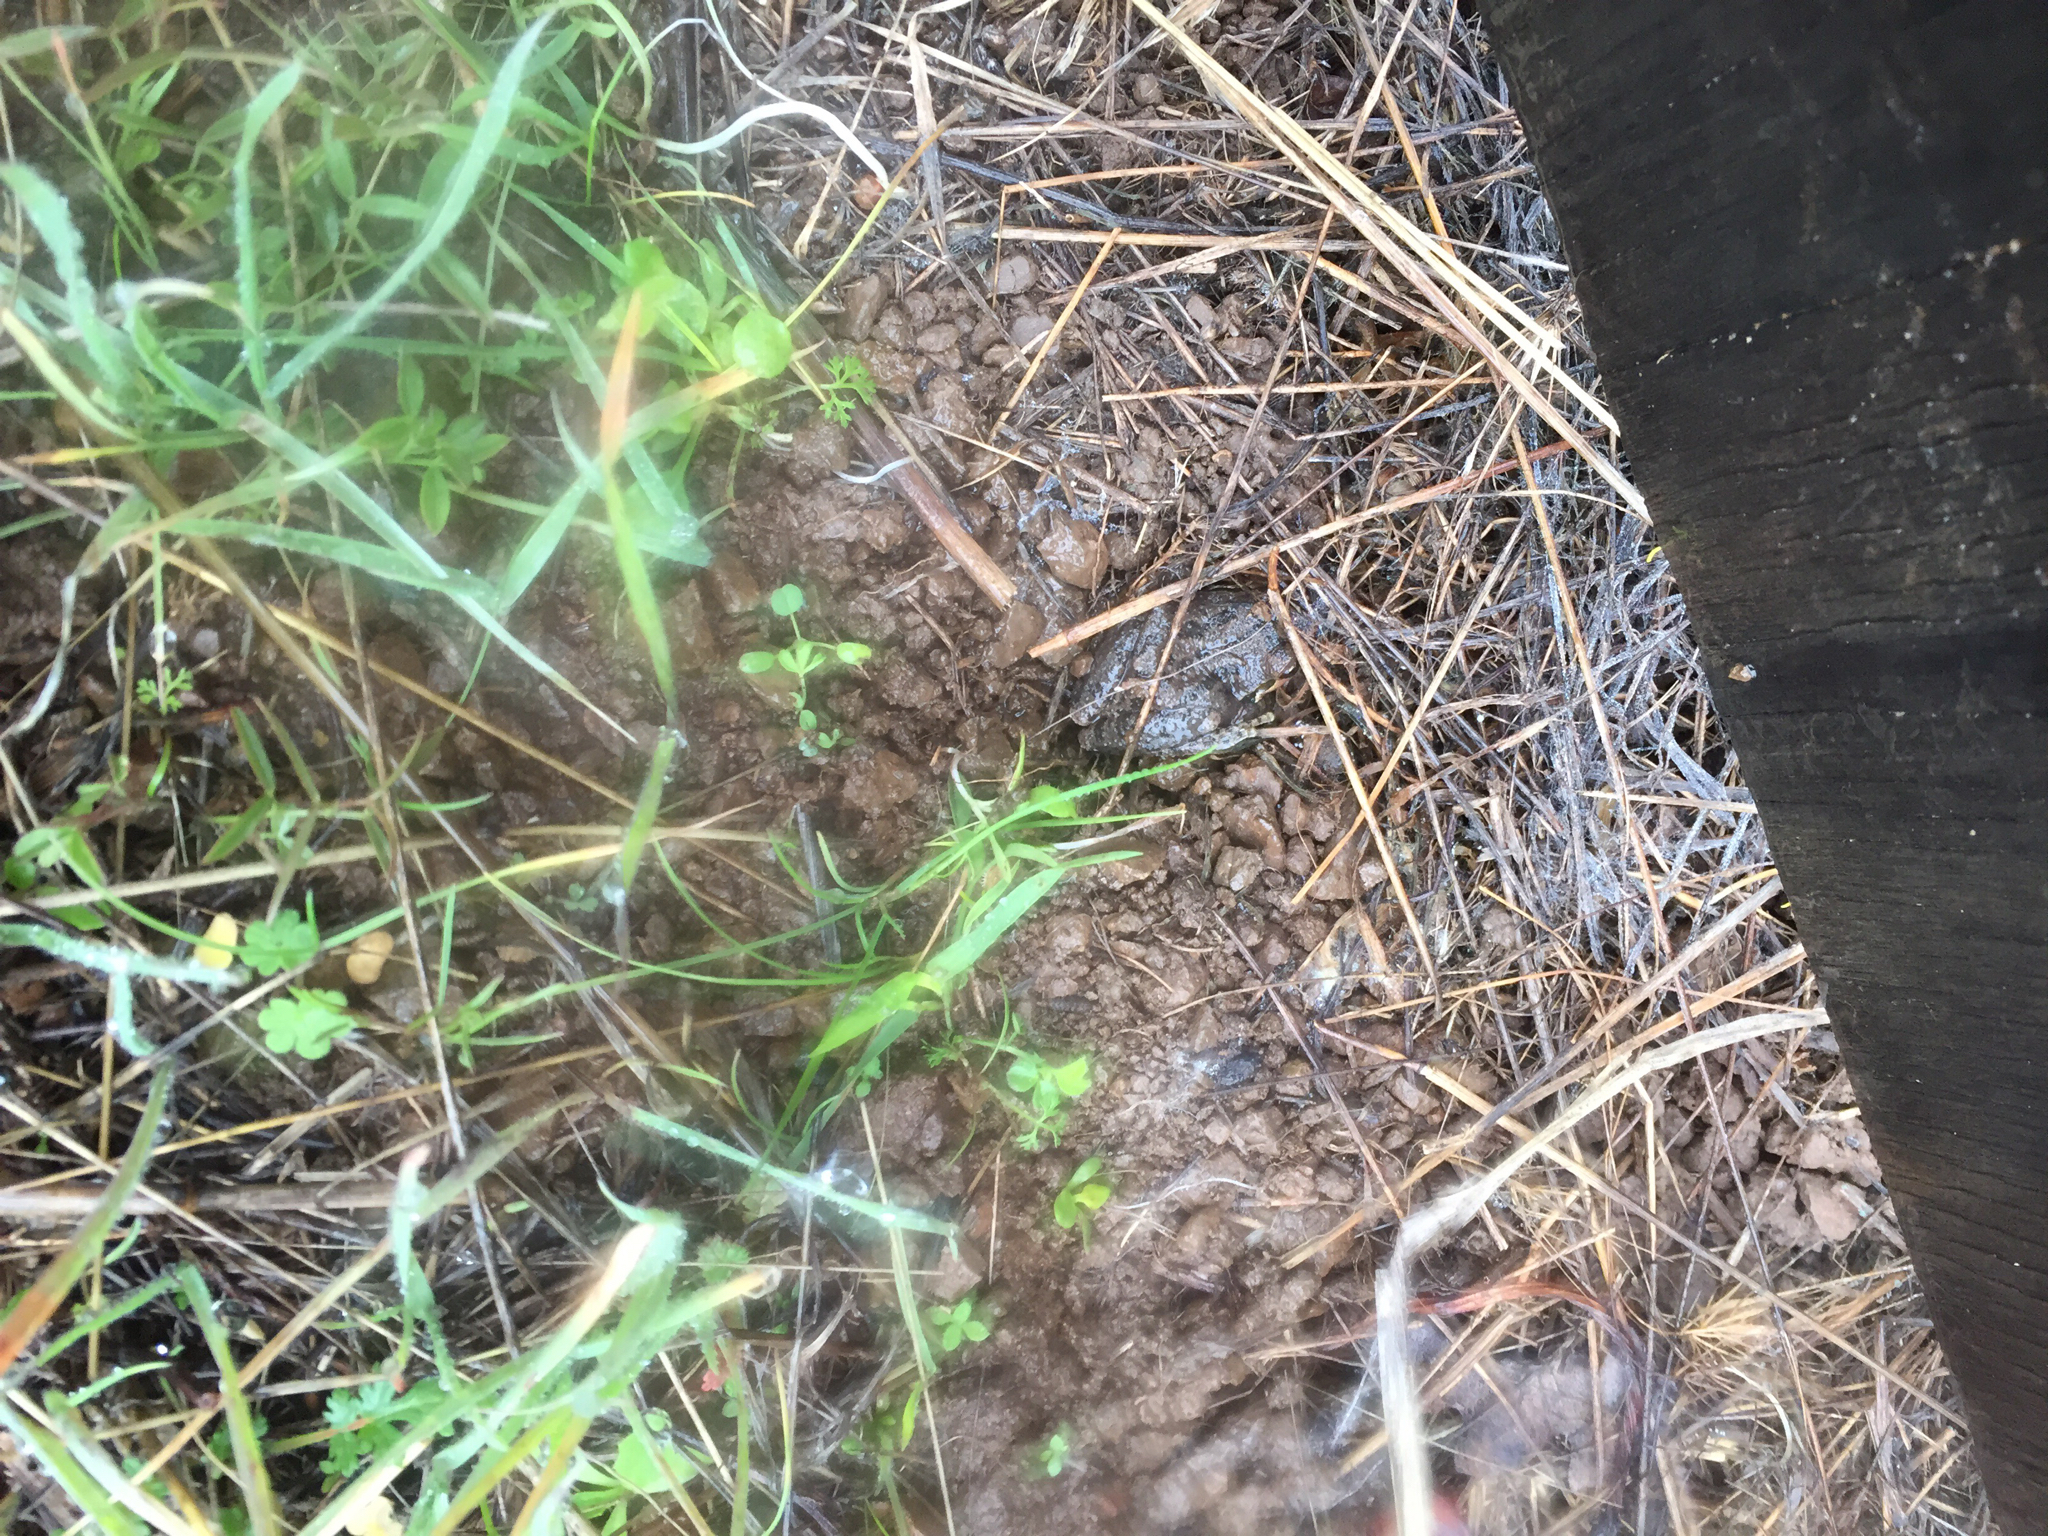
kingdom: Animalia
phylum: Chordata
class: Amphibia
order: Anura
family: Hylidae
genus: Pseudacris
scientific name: Pseudacris regilla
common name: Pacific chorus frog
